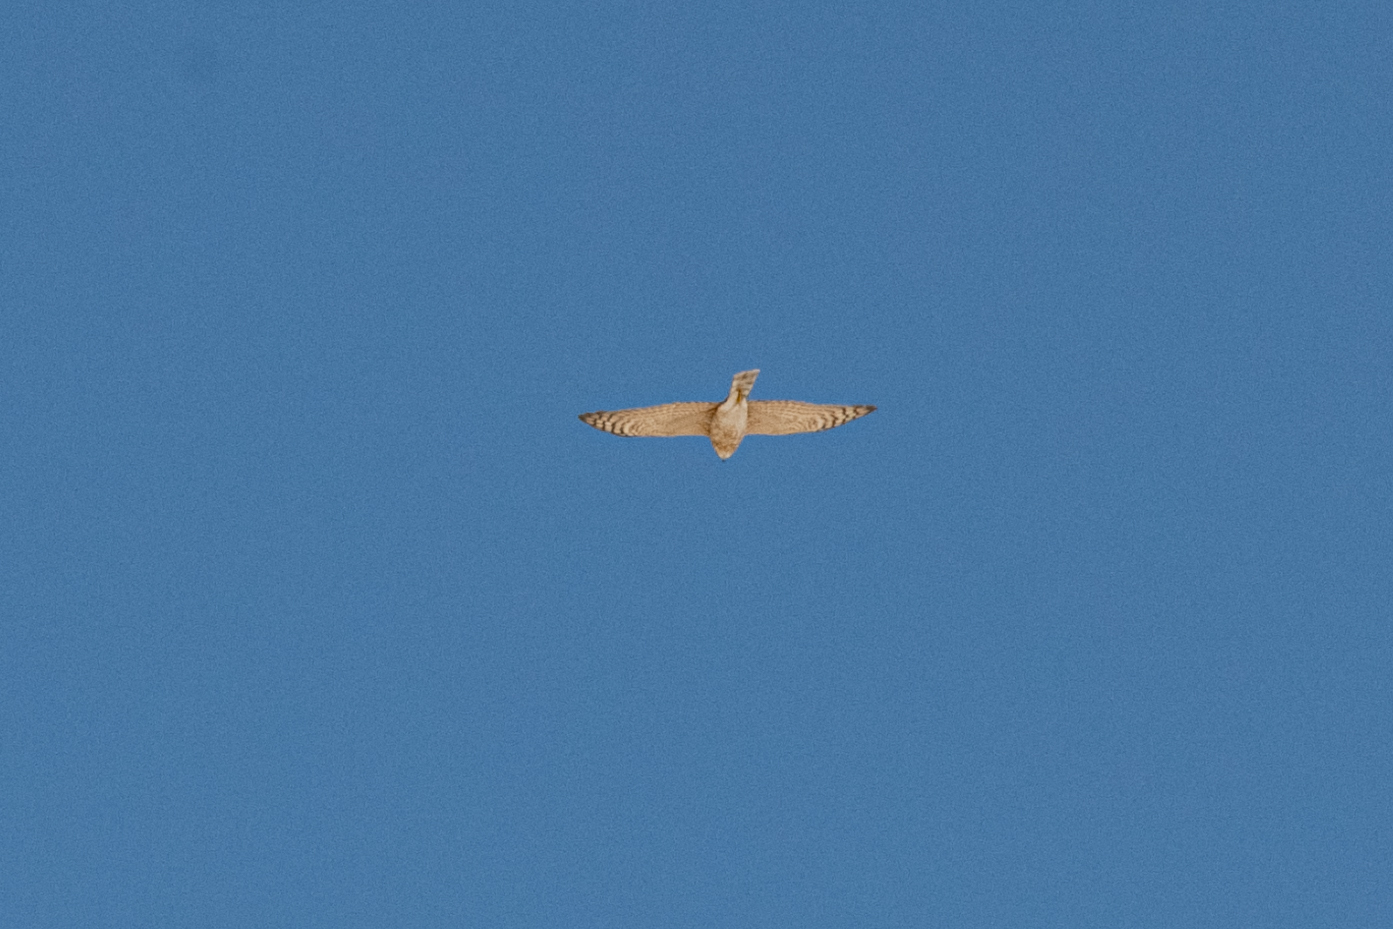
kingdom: Animalia
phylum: Chordata
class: Aves
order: Accipitriformes
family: Accipitridae
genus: Accipiter
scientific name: Accipiter nisus
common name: Eurasian sparrowhawk
